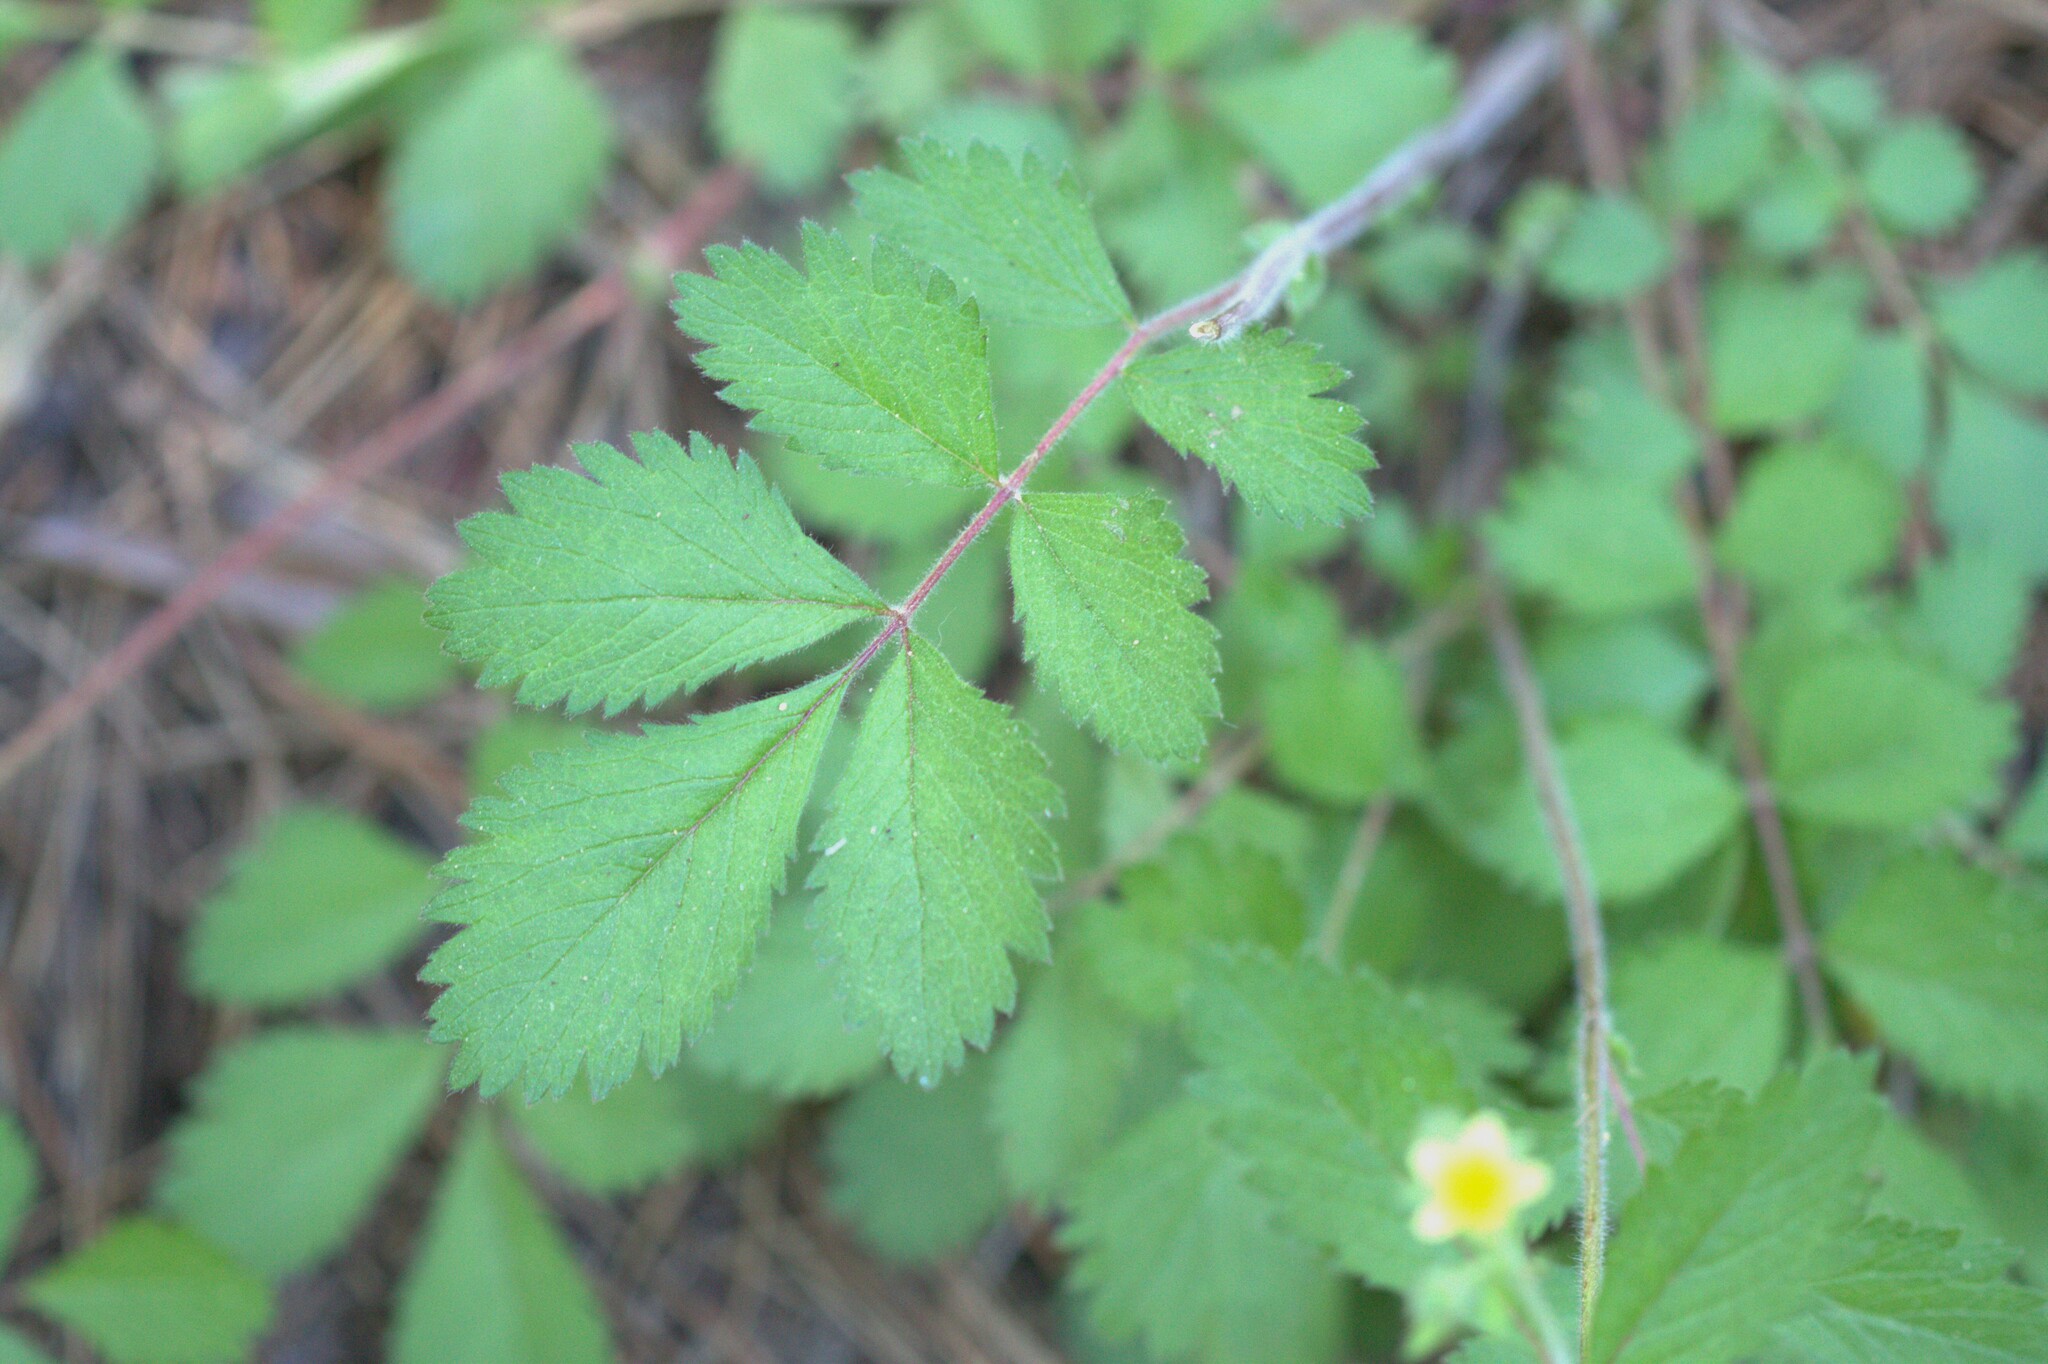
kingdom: Plantae
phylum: Tracheophyta
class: Magnoliopsida
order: Rosales
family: Rosaceae
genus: Drymocallis
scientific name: Drymocallis glandulosa
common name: Sticky cinquefoil
